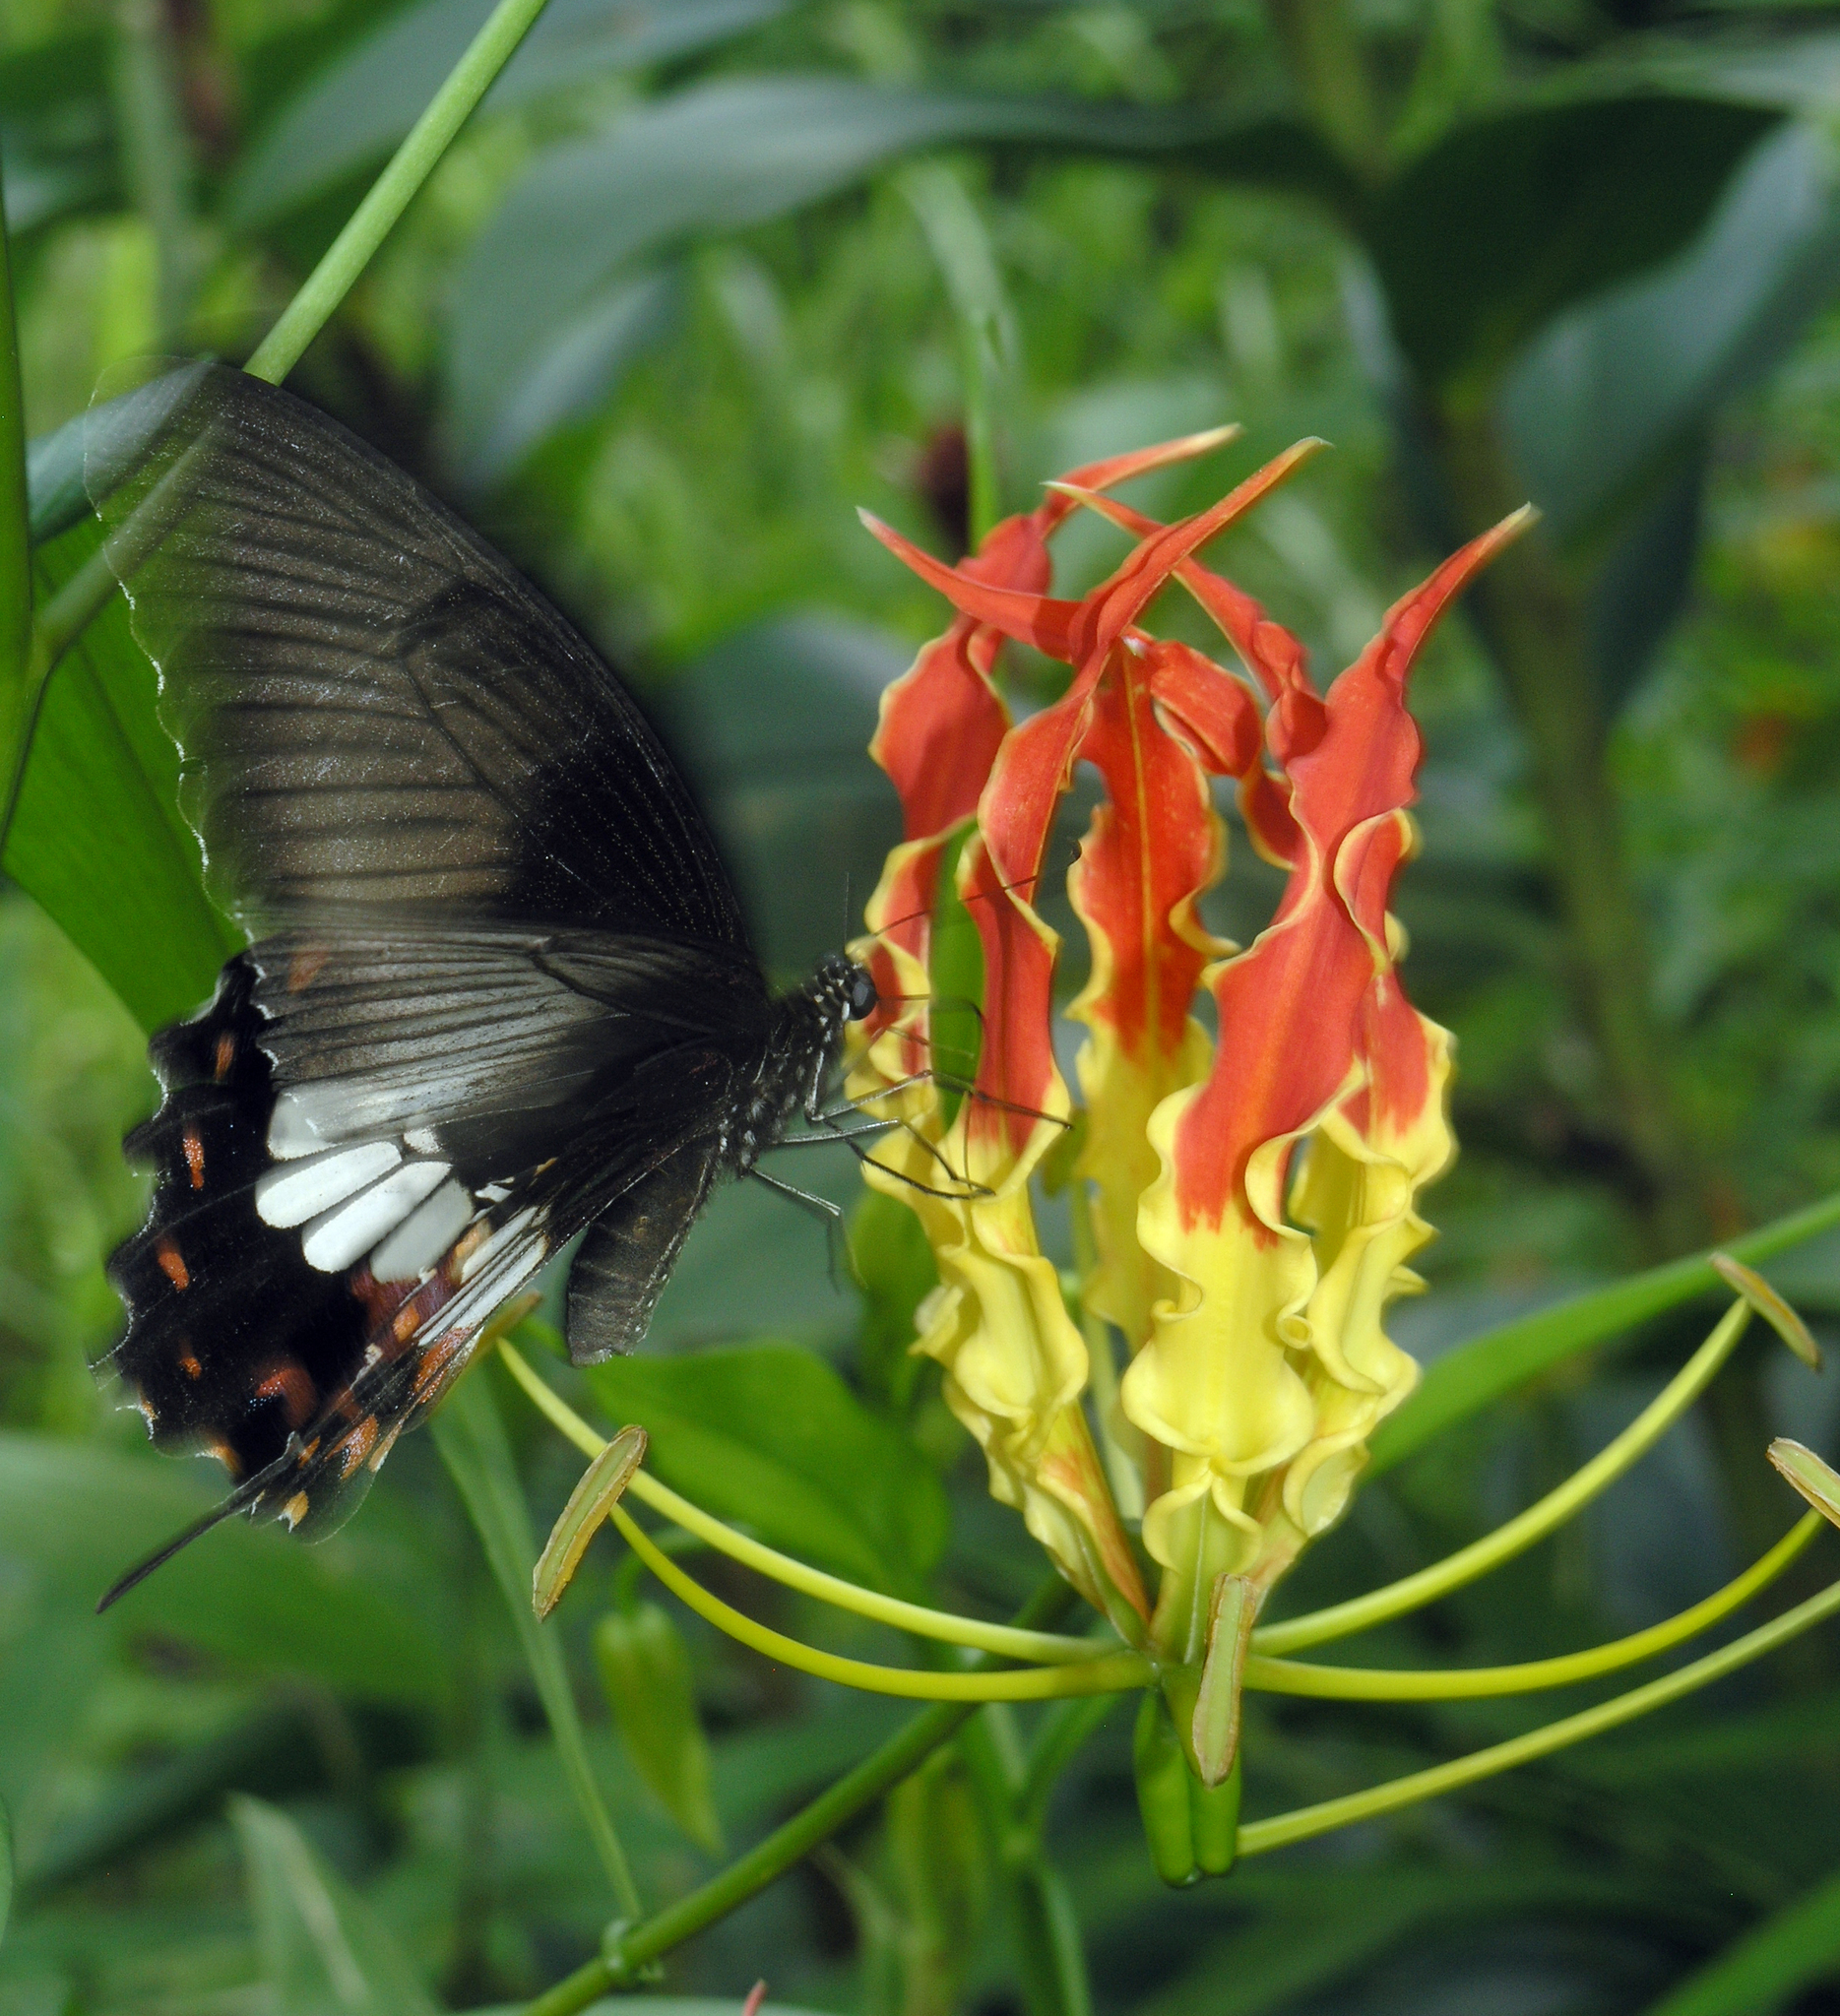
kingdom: Animalia
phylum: Arthropoda
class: Insecta
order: Lepidoptera
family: Papilionidae
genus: Papilio
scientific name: Papilio polytes
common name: Common mormon
